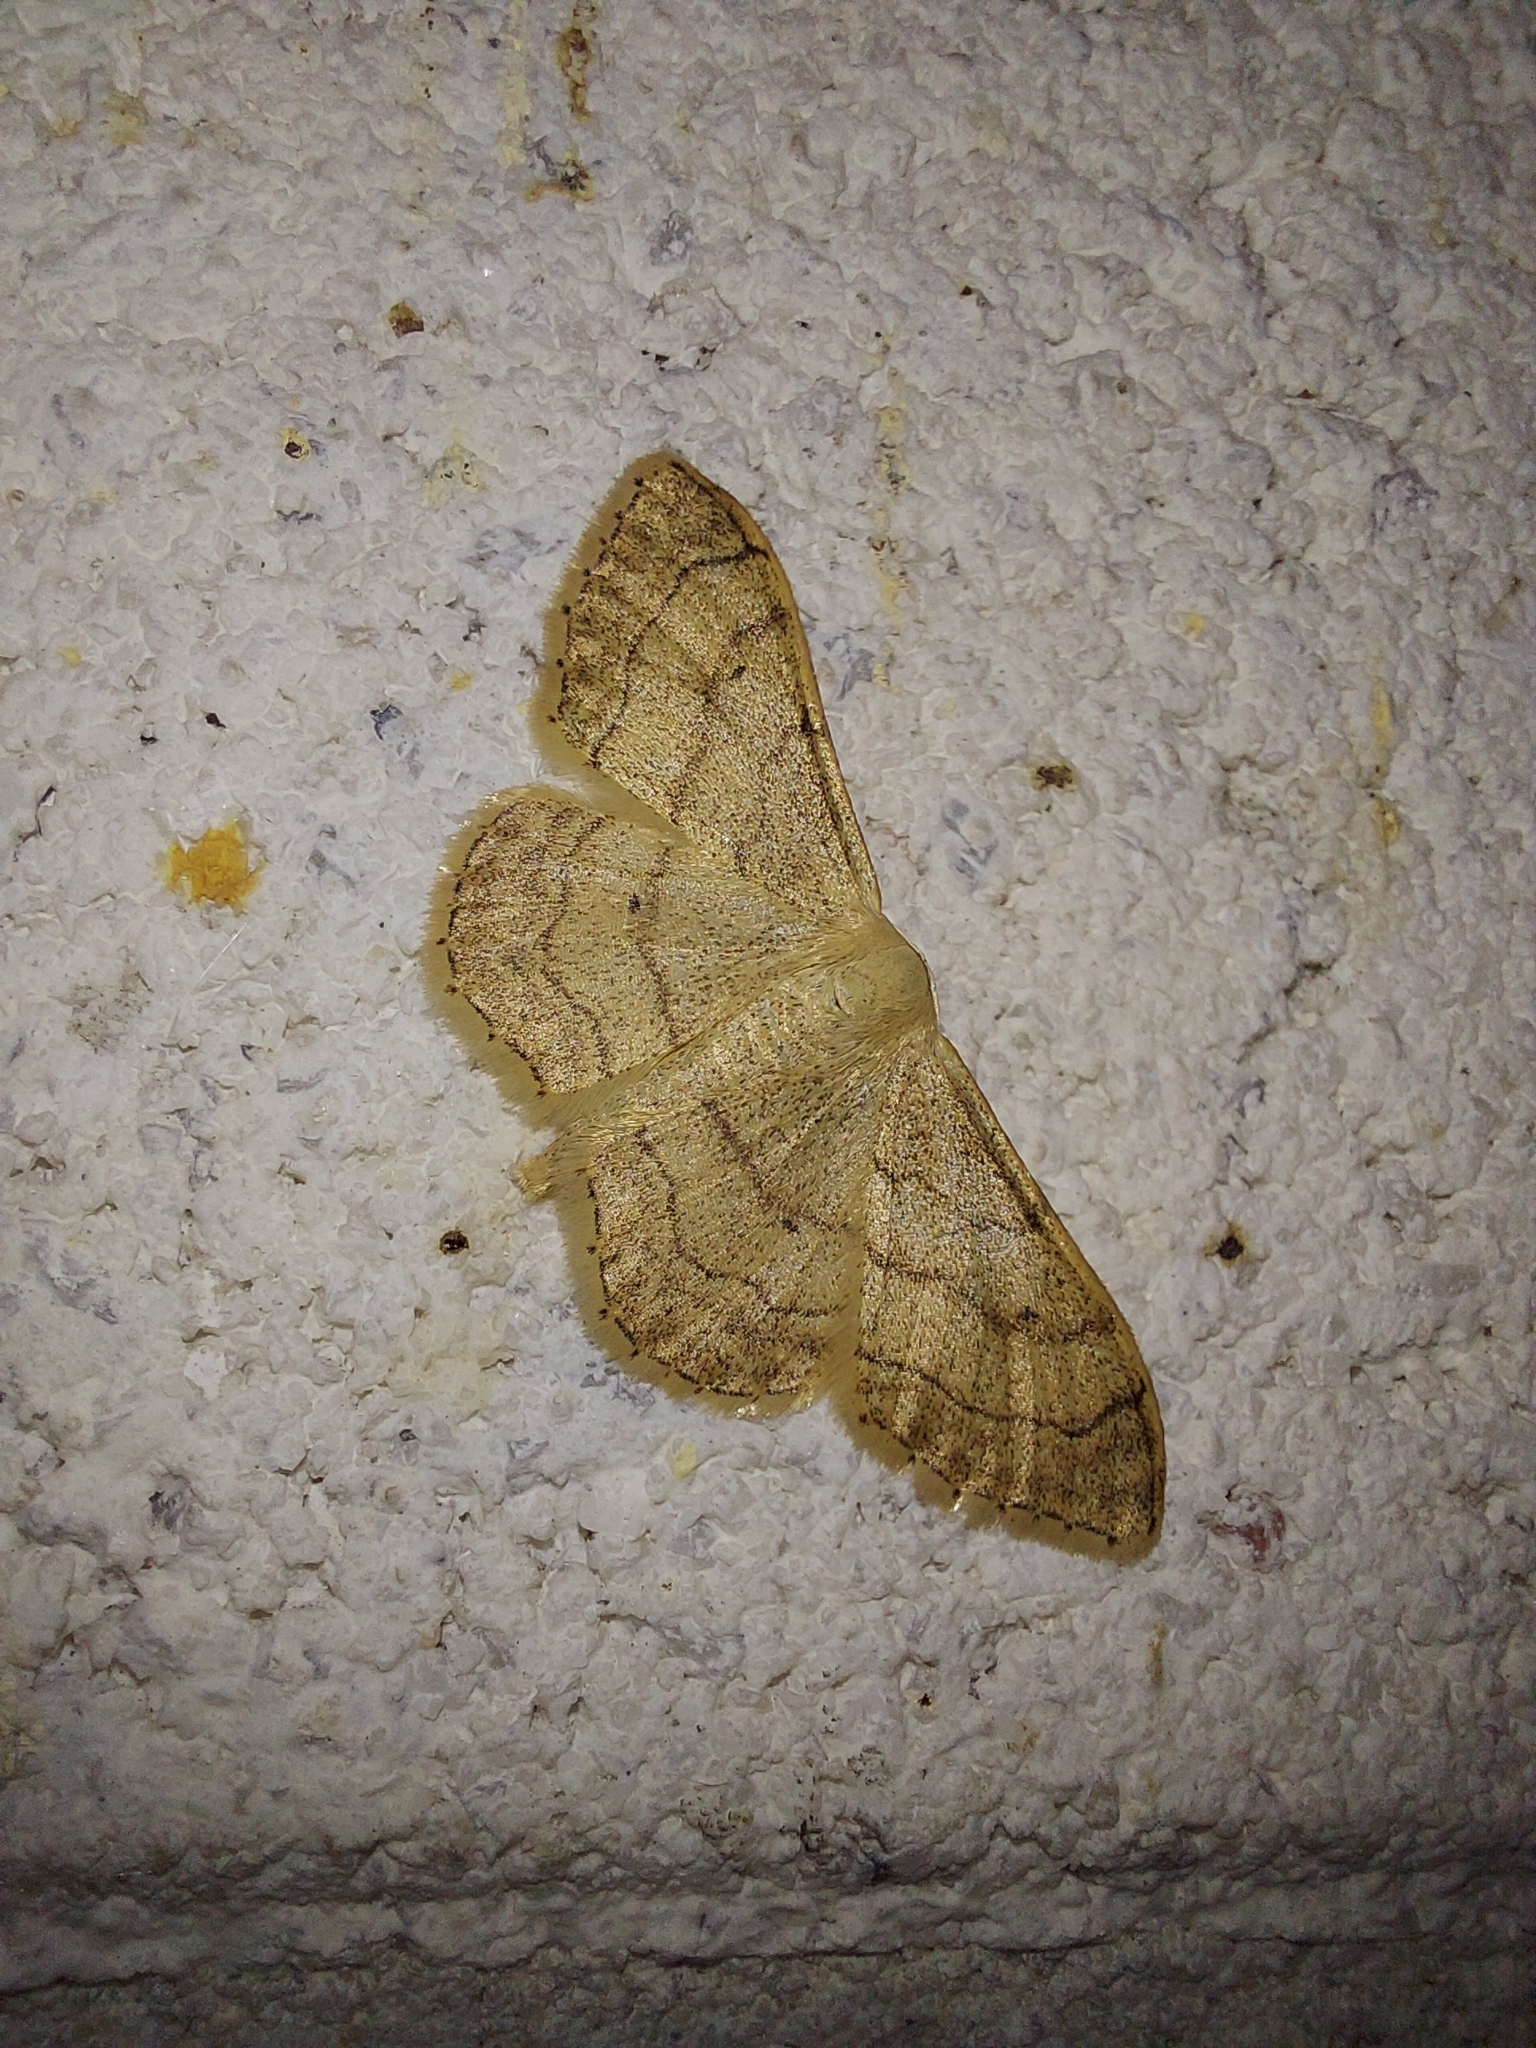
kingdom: Animalia
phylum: Arthropoda
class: Insecta
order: Lepidoptera
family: Geometridae
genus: Idaea
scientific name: Idaea aversata
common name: Riband wave
